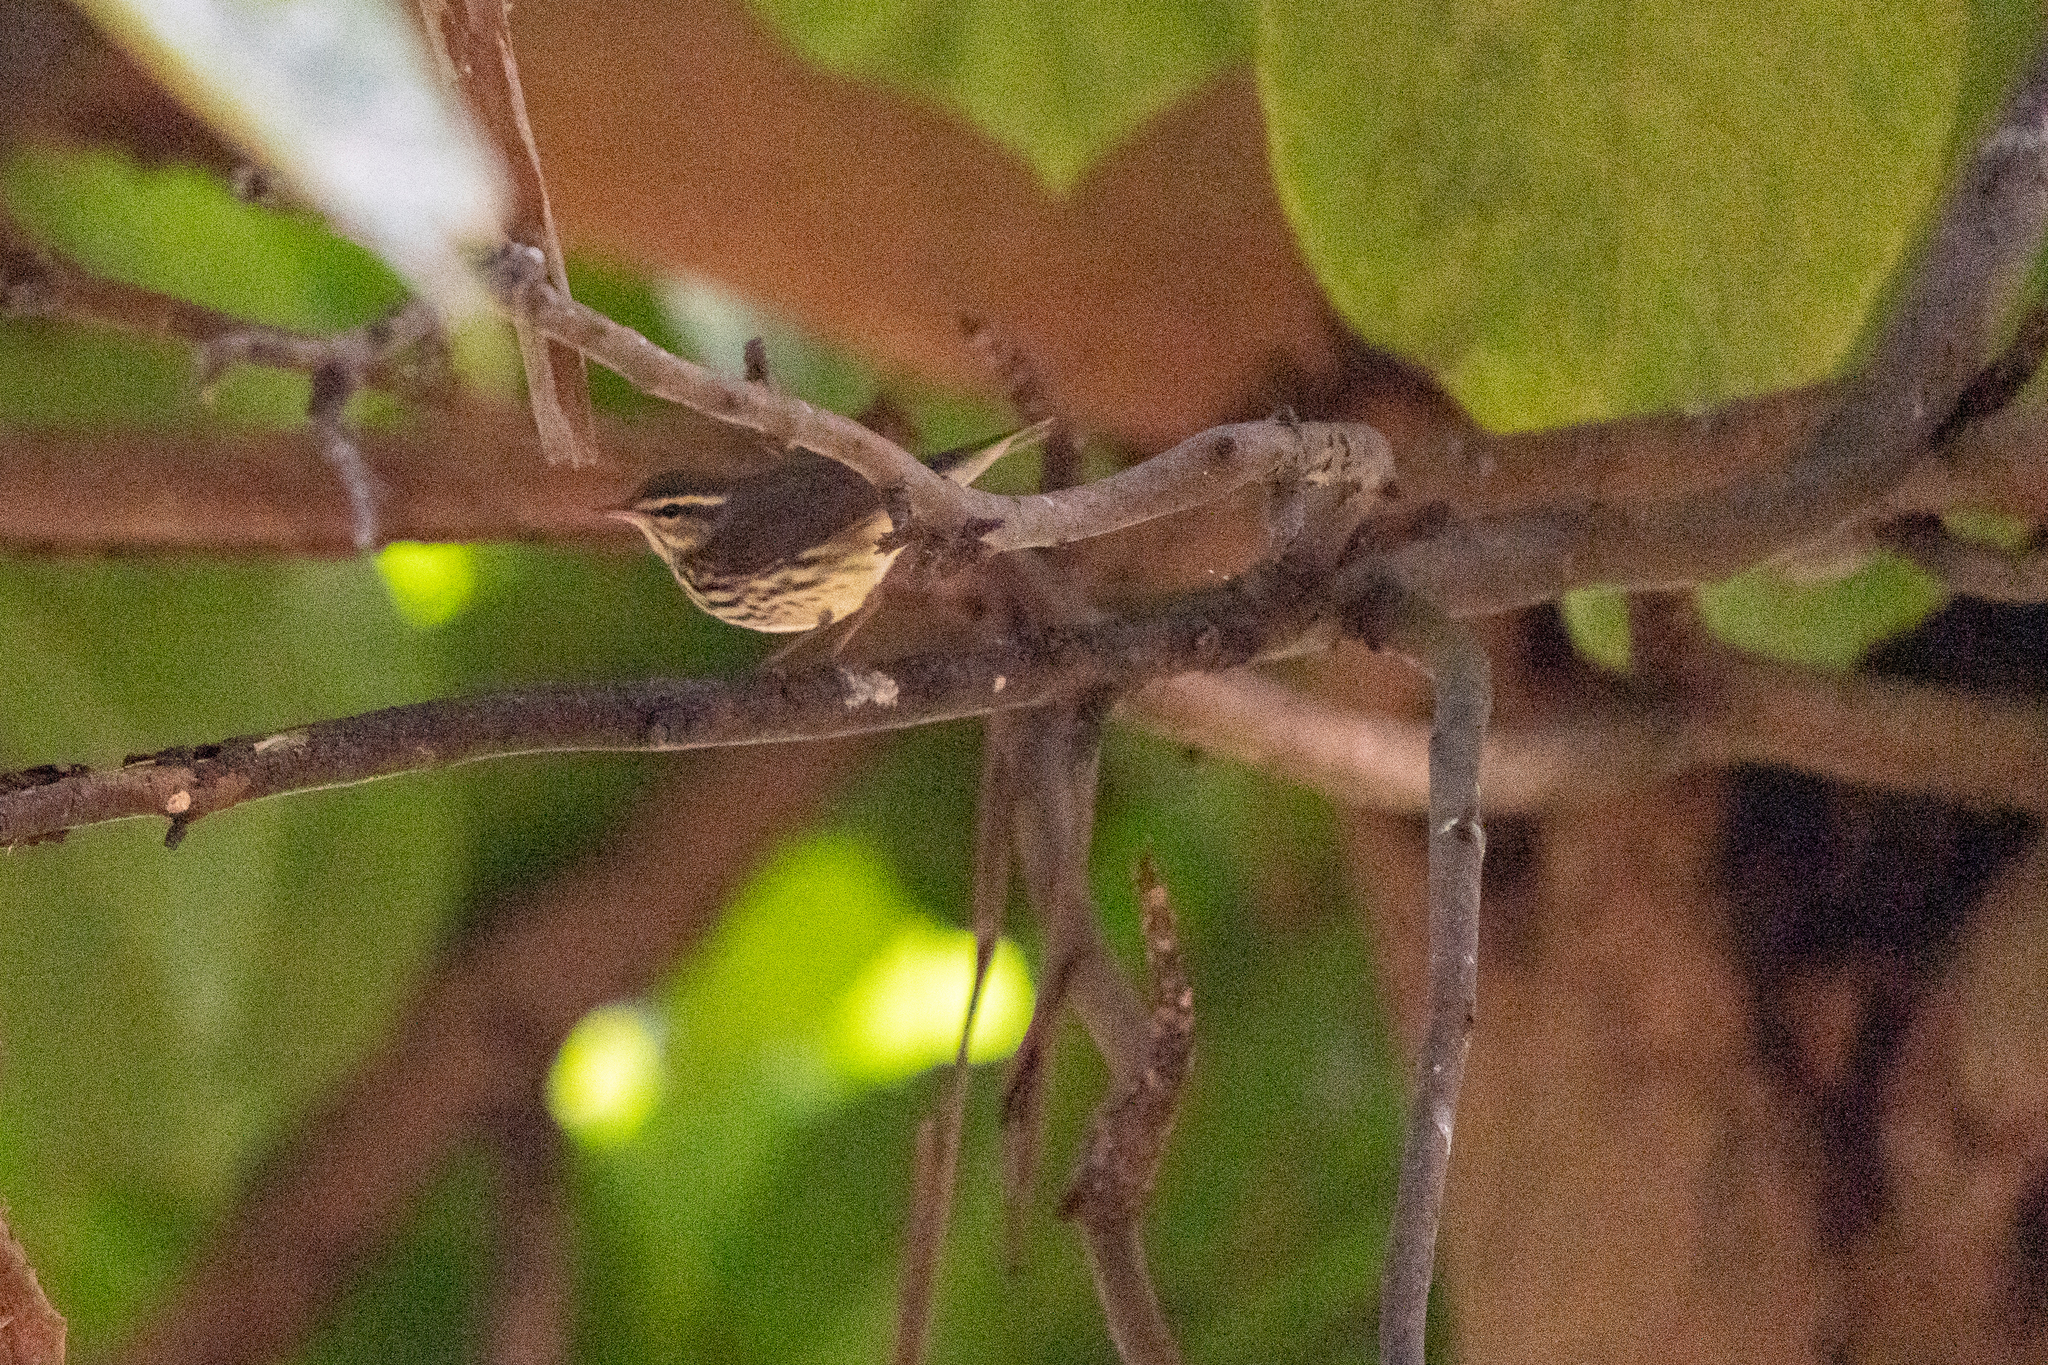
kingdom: Animalia
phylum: Chordata
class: Aves
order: Passeriformes
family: Parulidae
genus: Parkesia
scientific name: Parkesia noveboracensis
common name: Northern waterthrush
